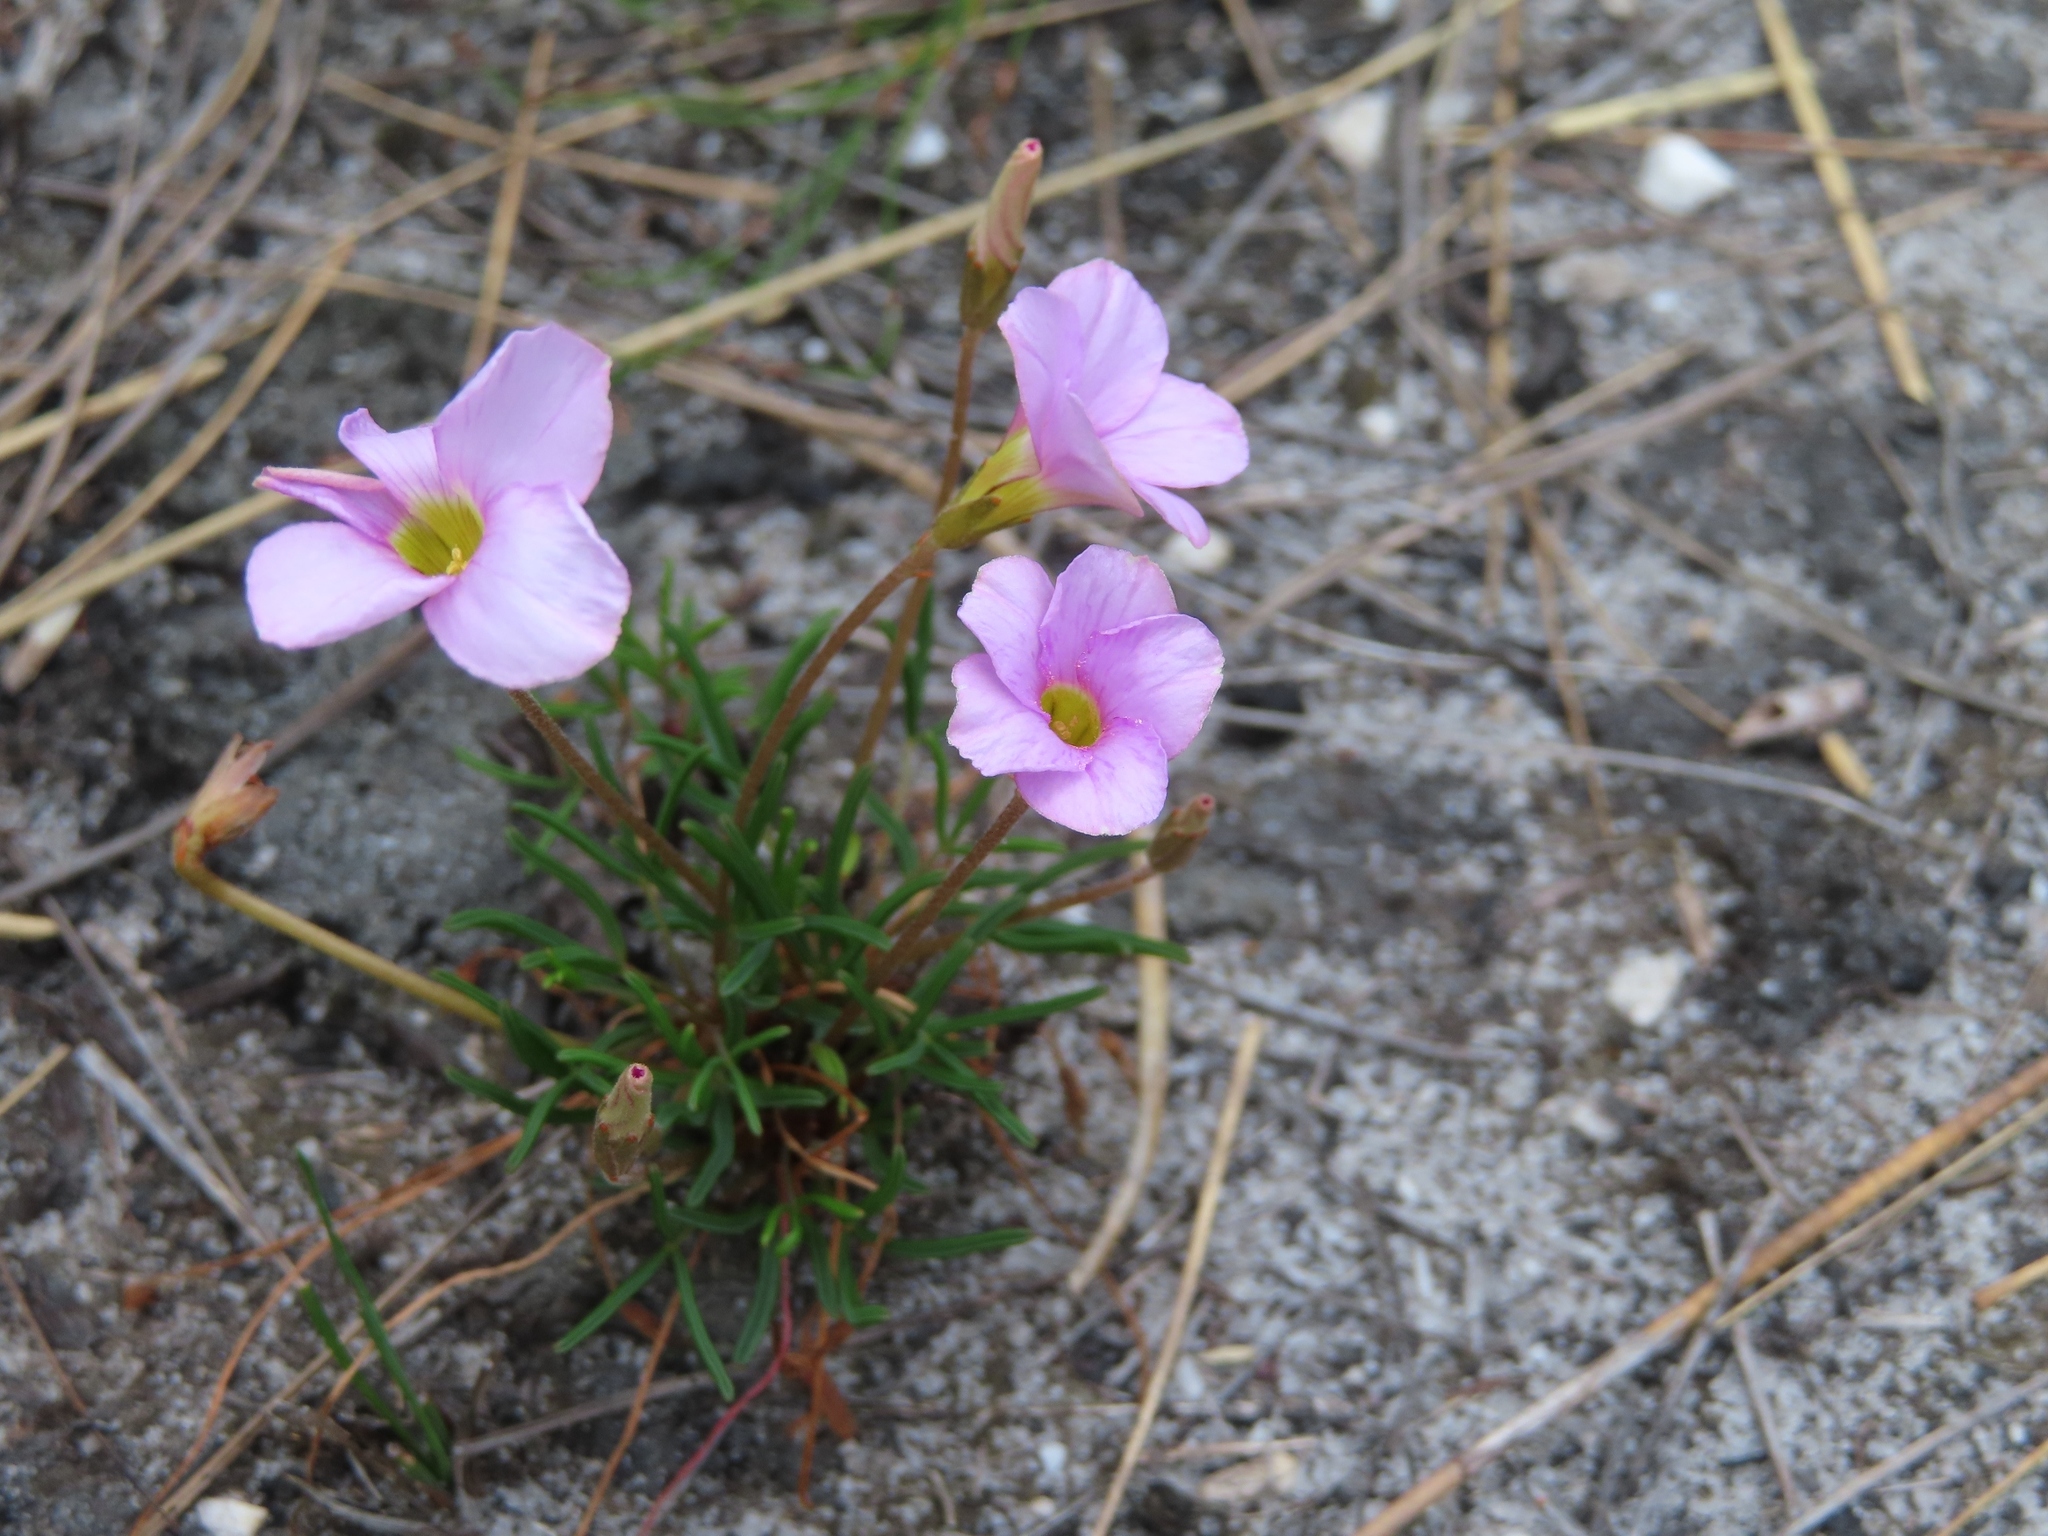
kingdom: Plantae
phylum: Tracheophyta
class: Magnoliopsida
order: Oxalidales
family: Oxalidaceae
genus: Oxalis
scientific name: Oxalis polyphylla
